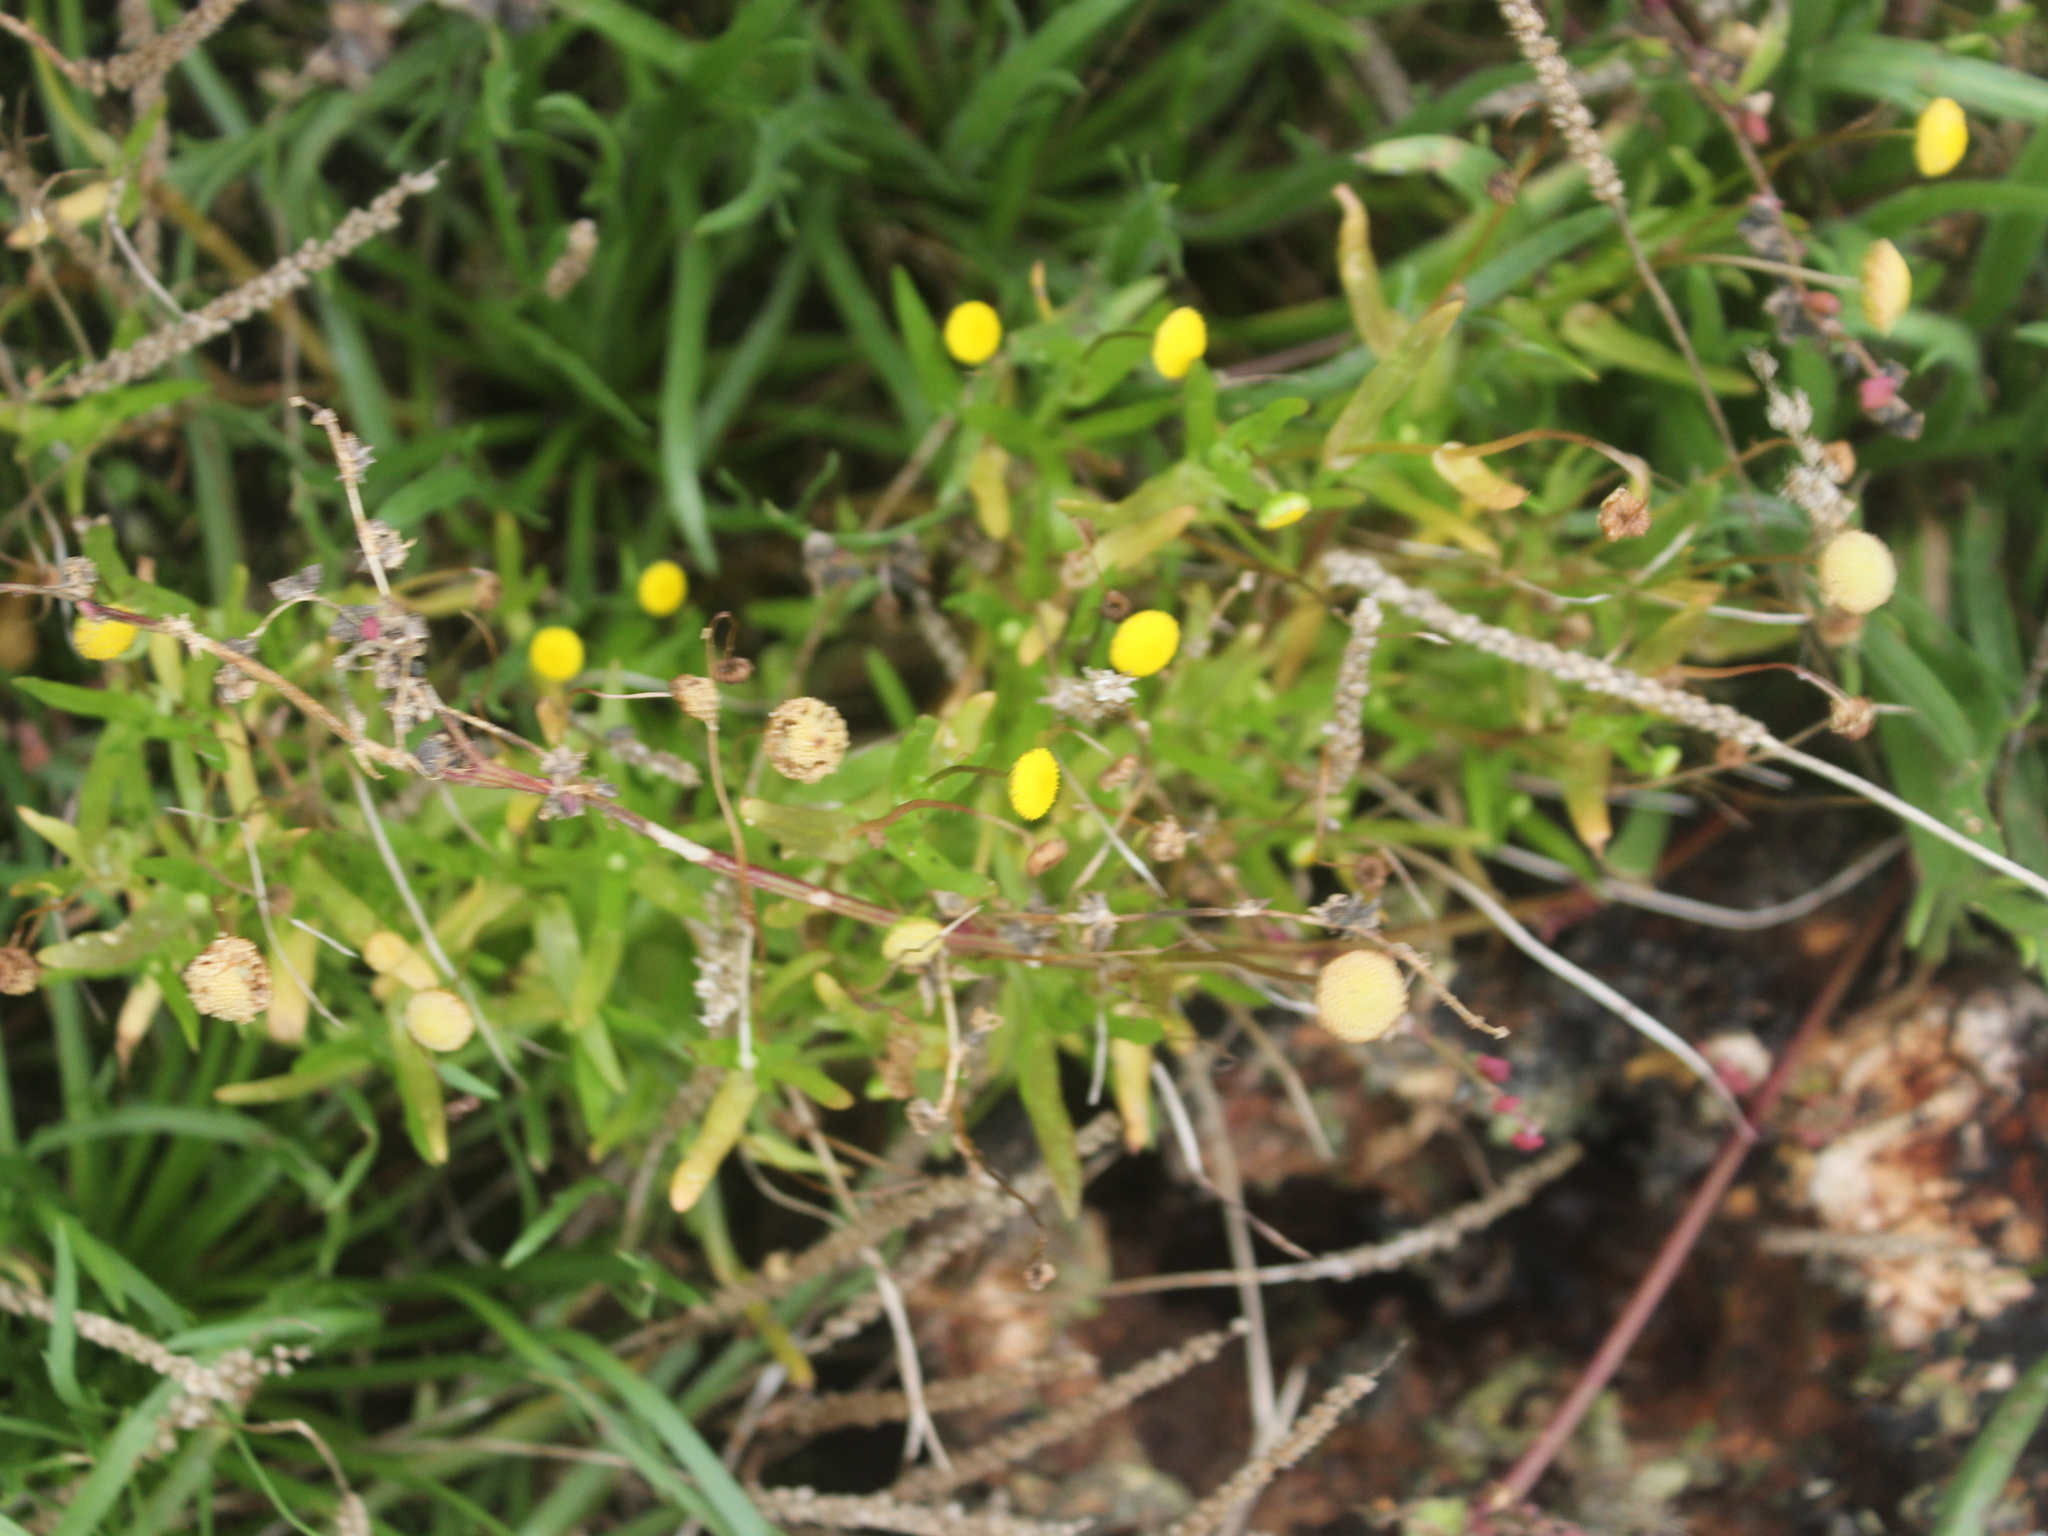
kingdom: Plantae
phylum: Tracheophyta
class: Magnoliopsida
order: Asterales
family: Asteraceae
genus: Cotula
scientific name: Cotula coronopifolia
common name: Buttonweed
